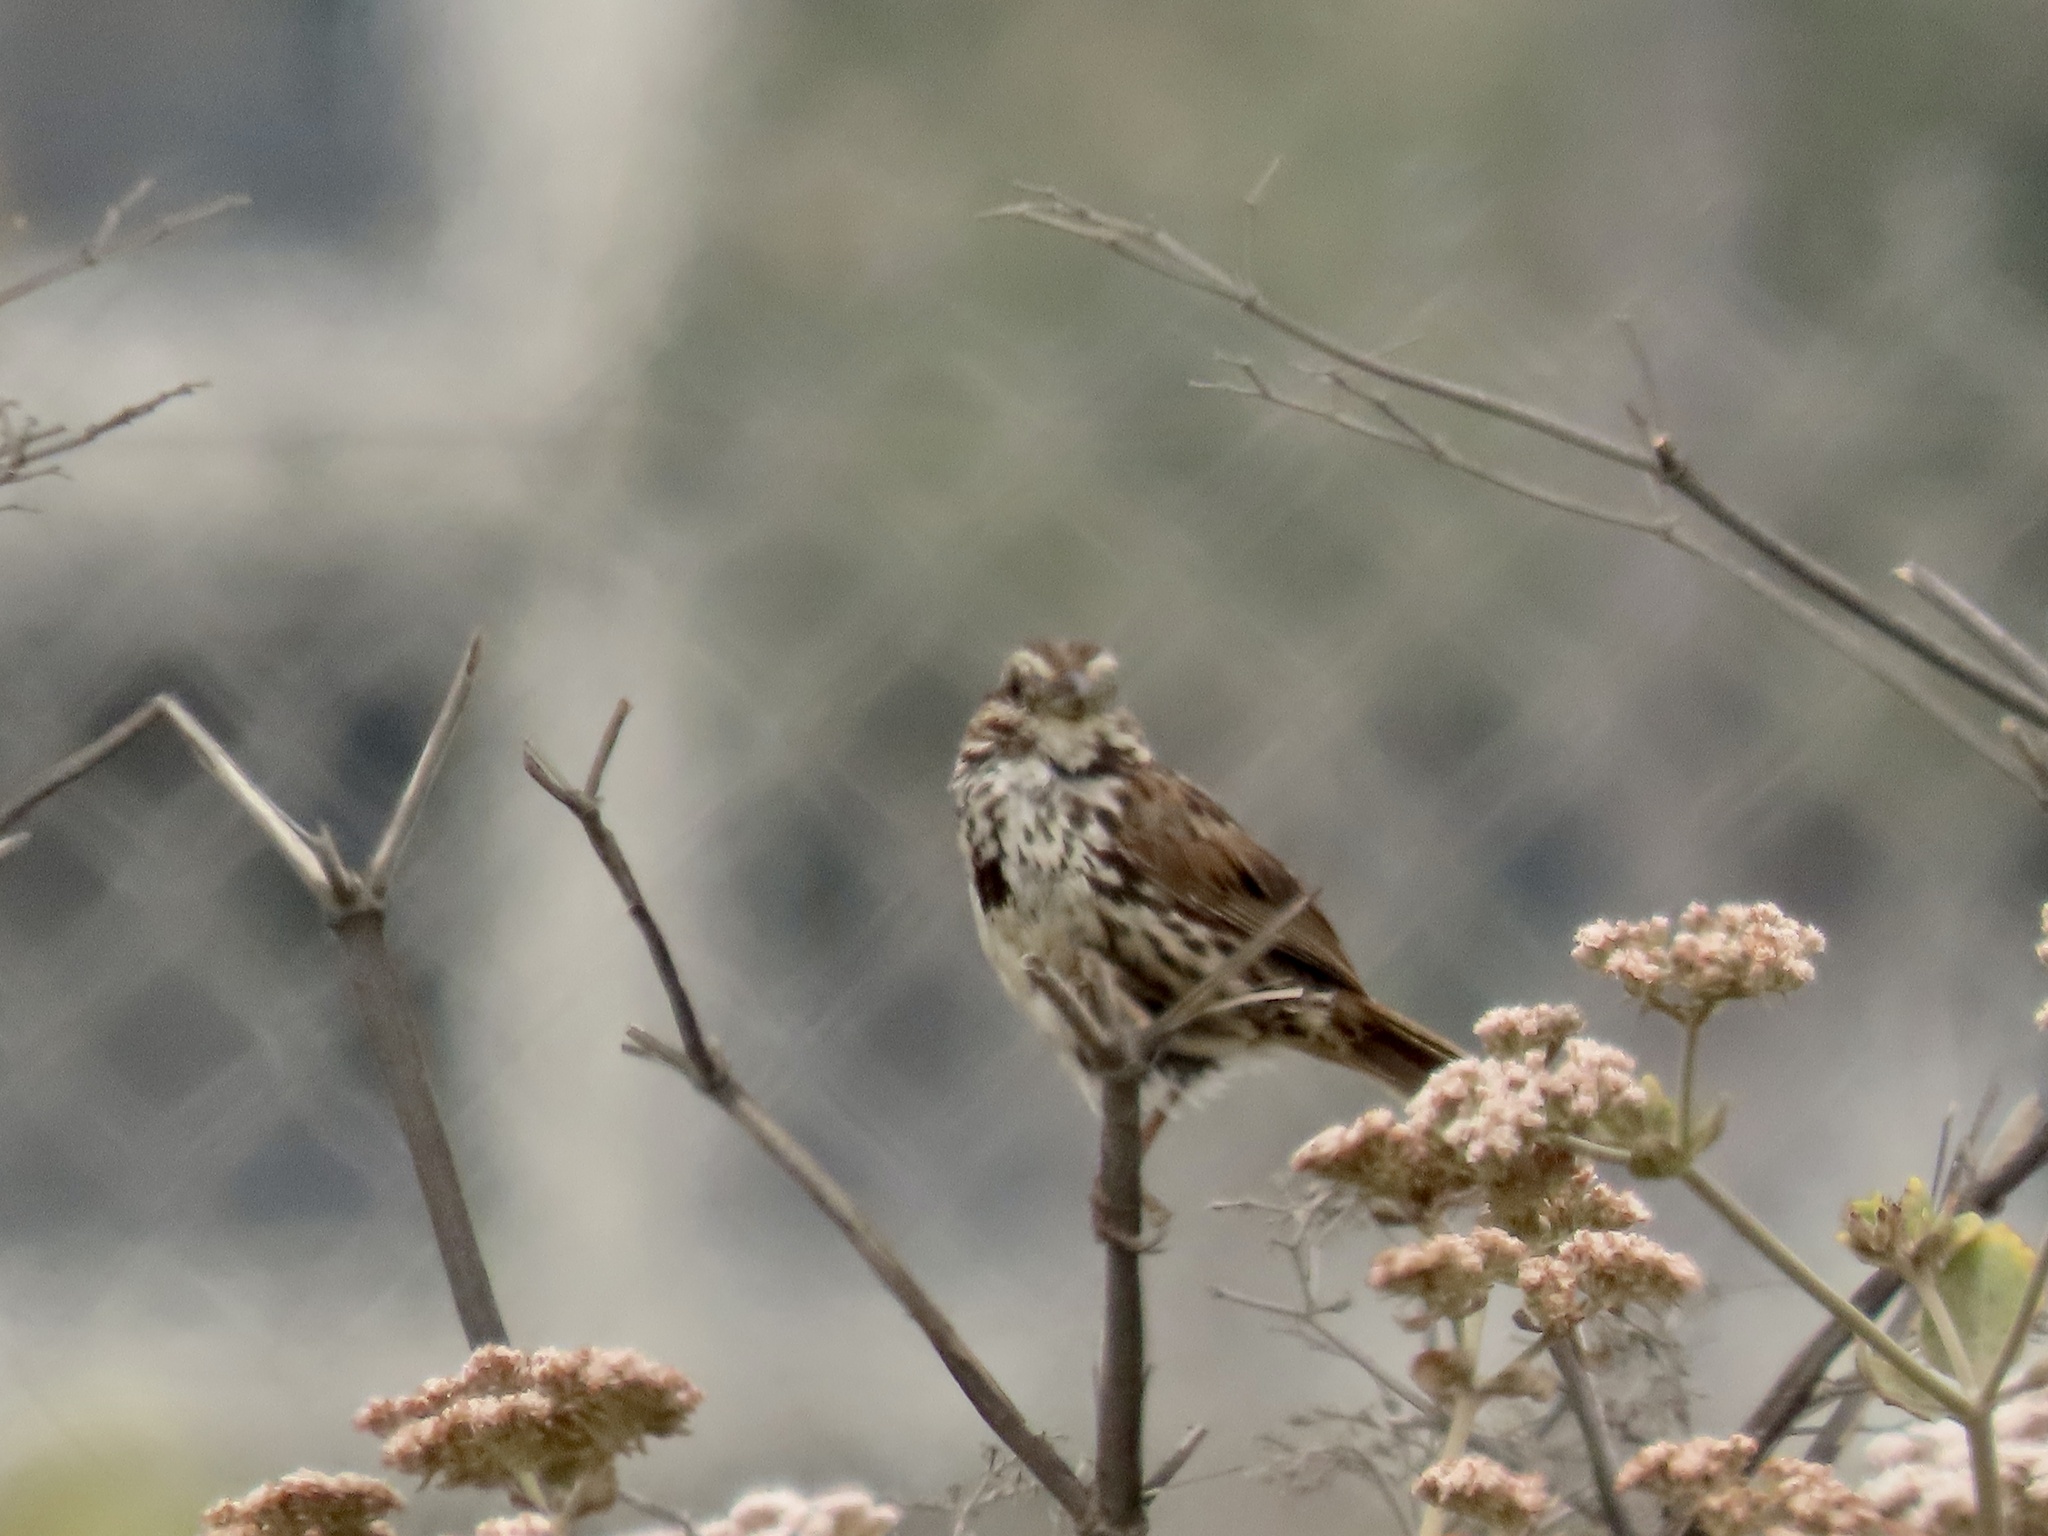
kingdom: Animalia
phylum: Chordata
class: Aves
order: Passeriformes
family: Passerellidae
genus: Melospiza
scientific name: Melospiza melodia
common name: Song sparrow
